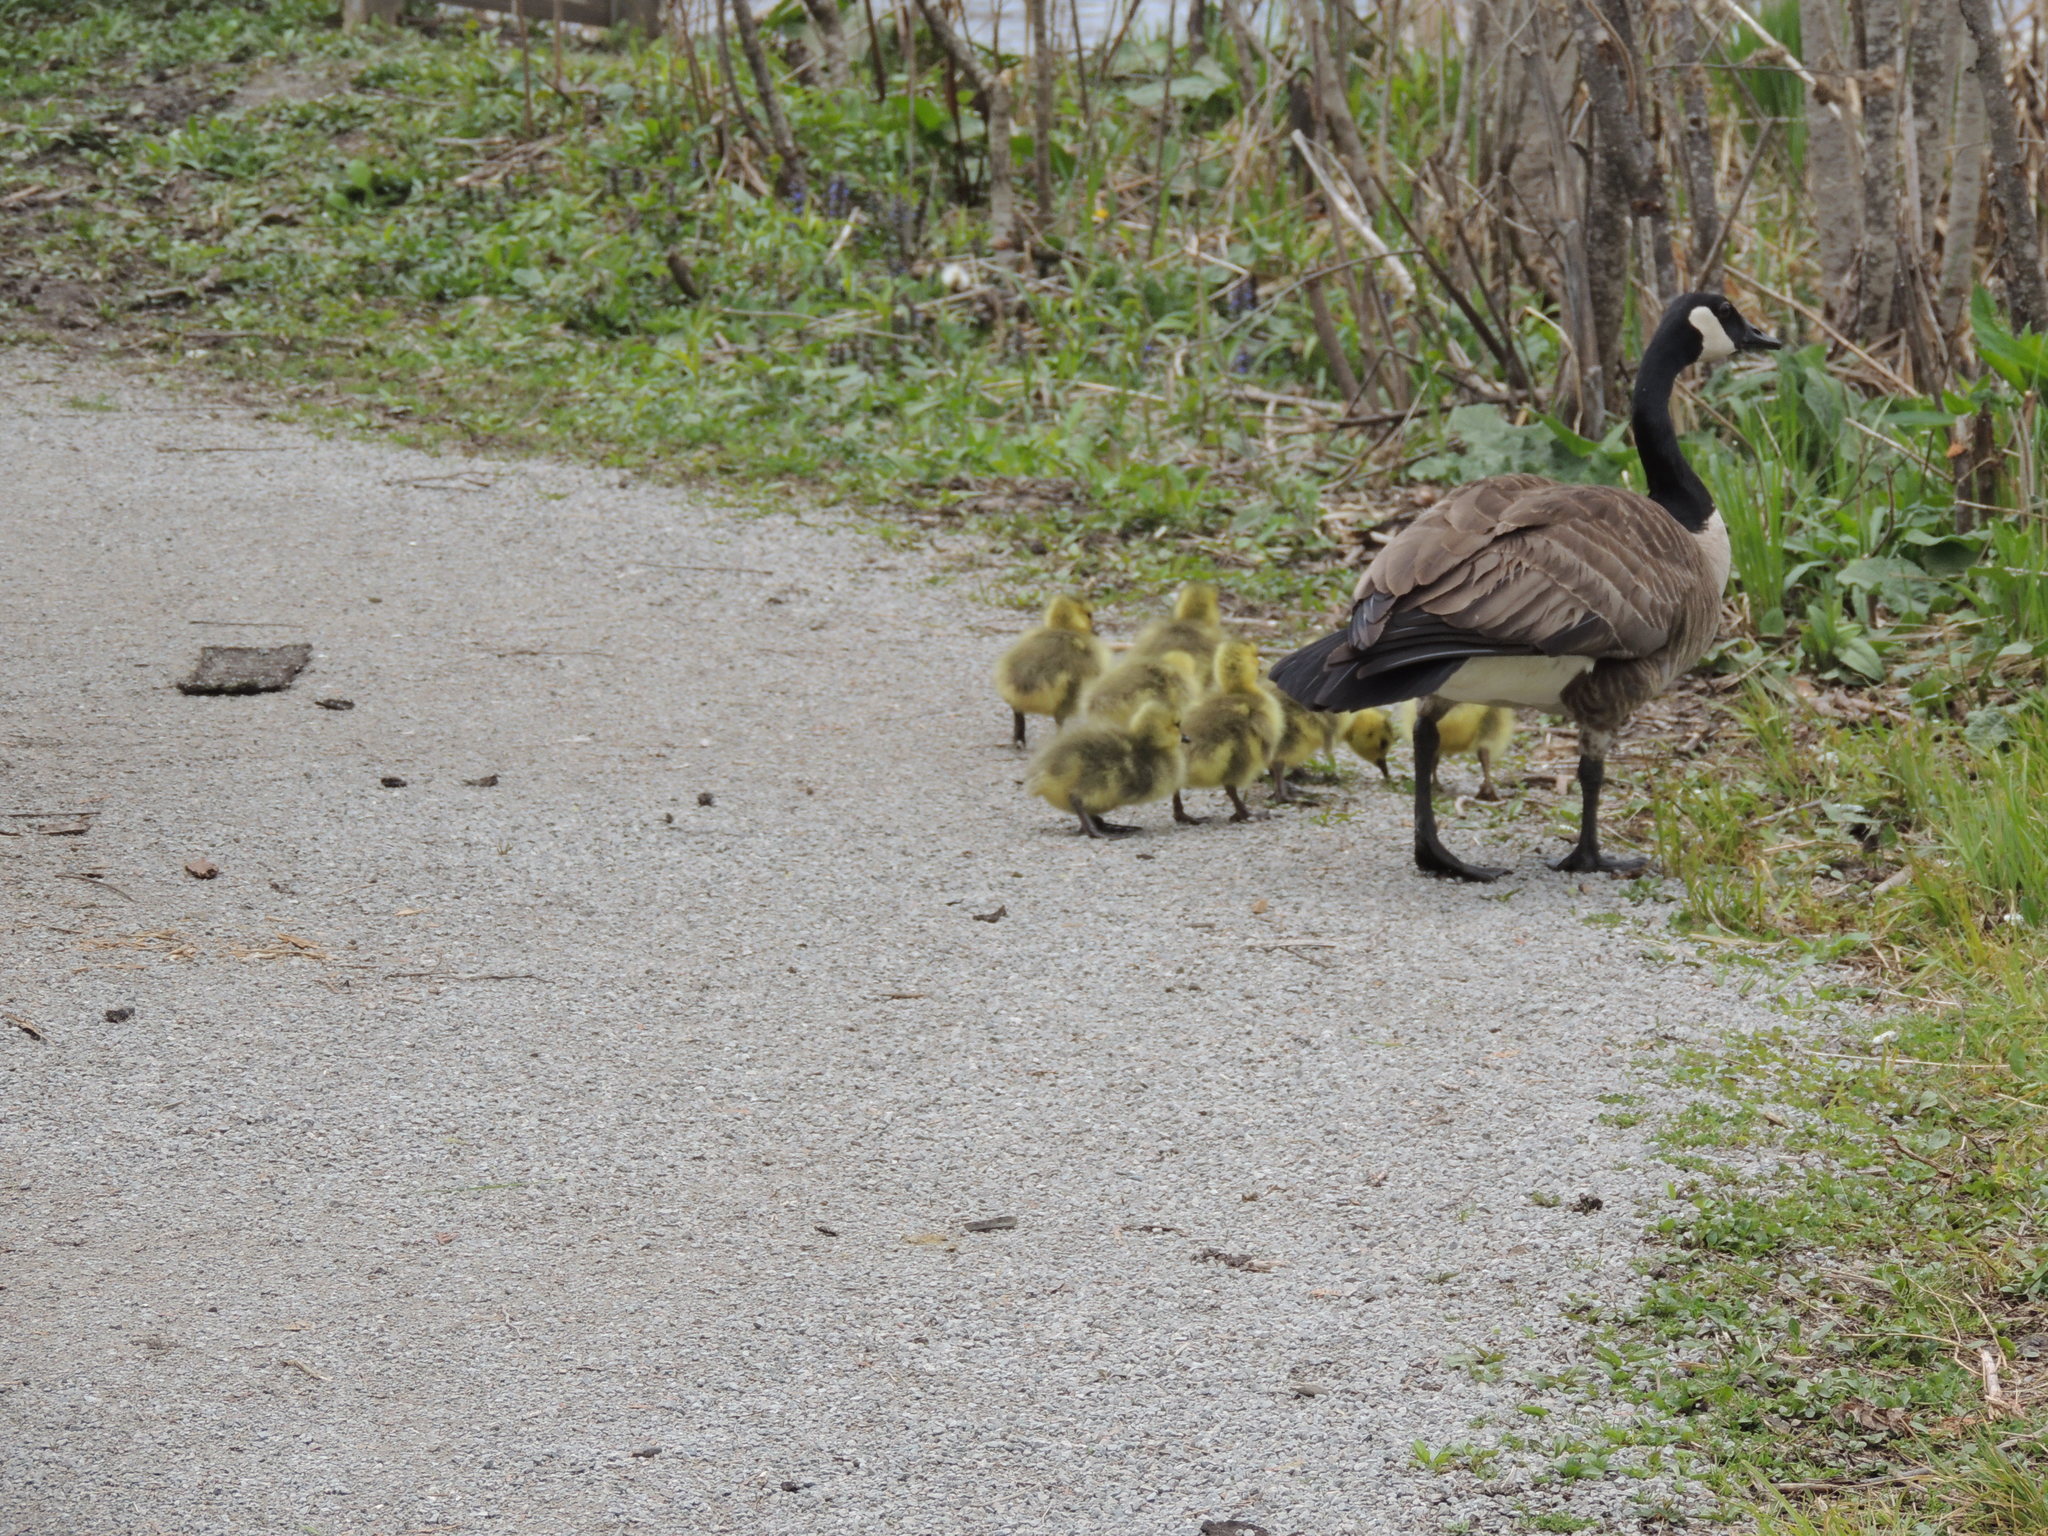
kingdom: Animalia
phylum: Chordata
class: Aves
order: Anseriformes
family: Anatidae
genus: Branta
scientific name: Branta canadensis
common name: Canada goose
